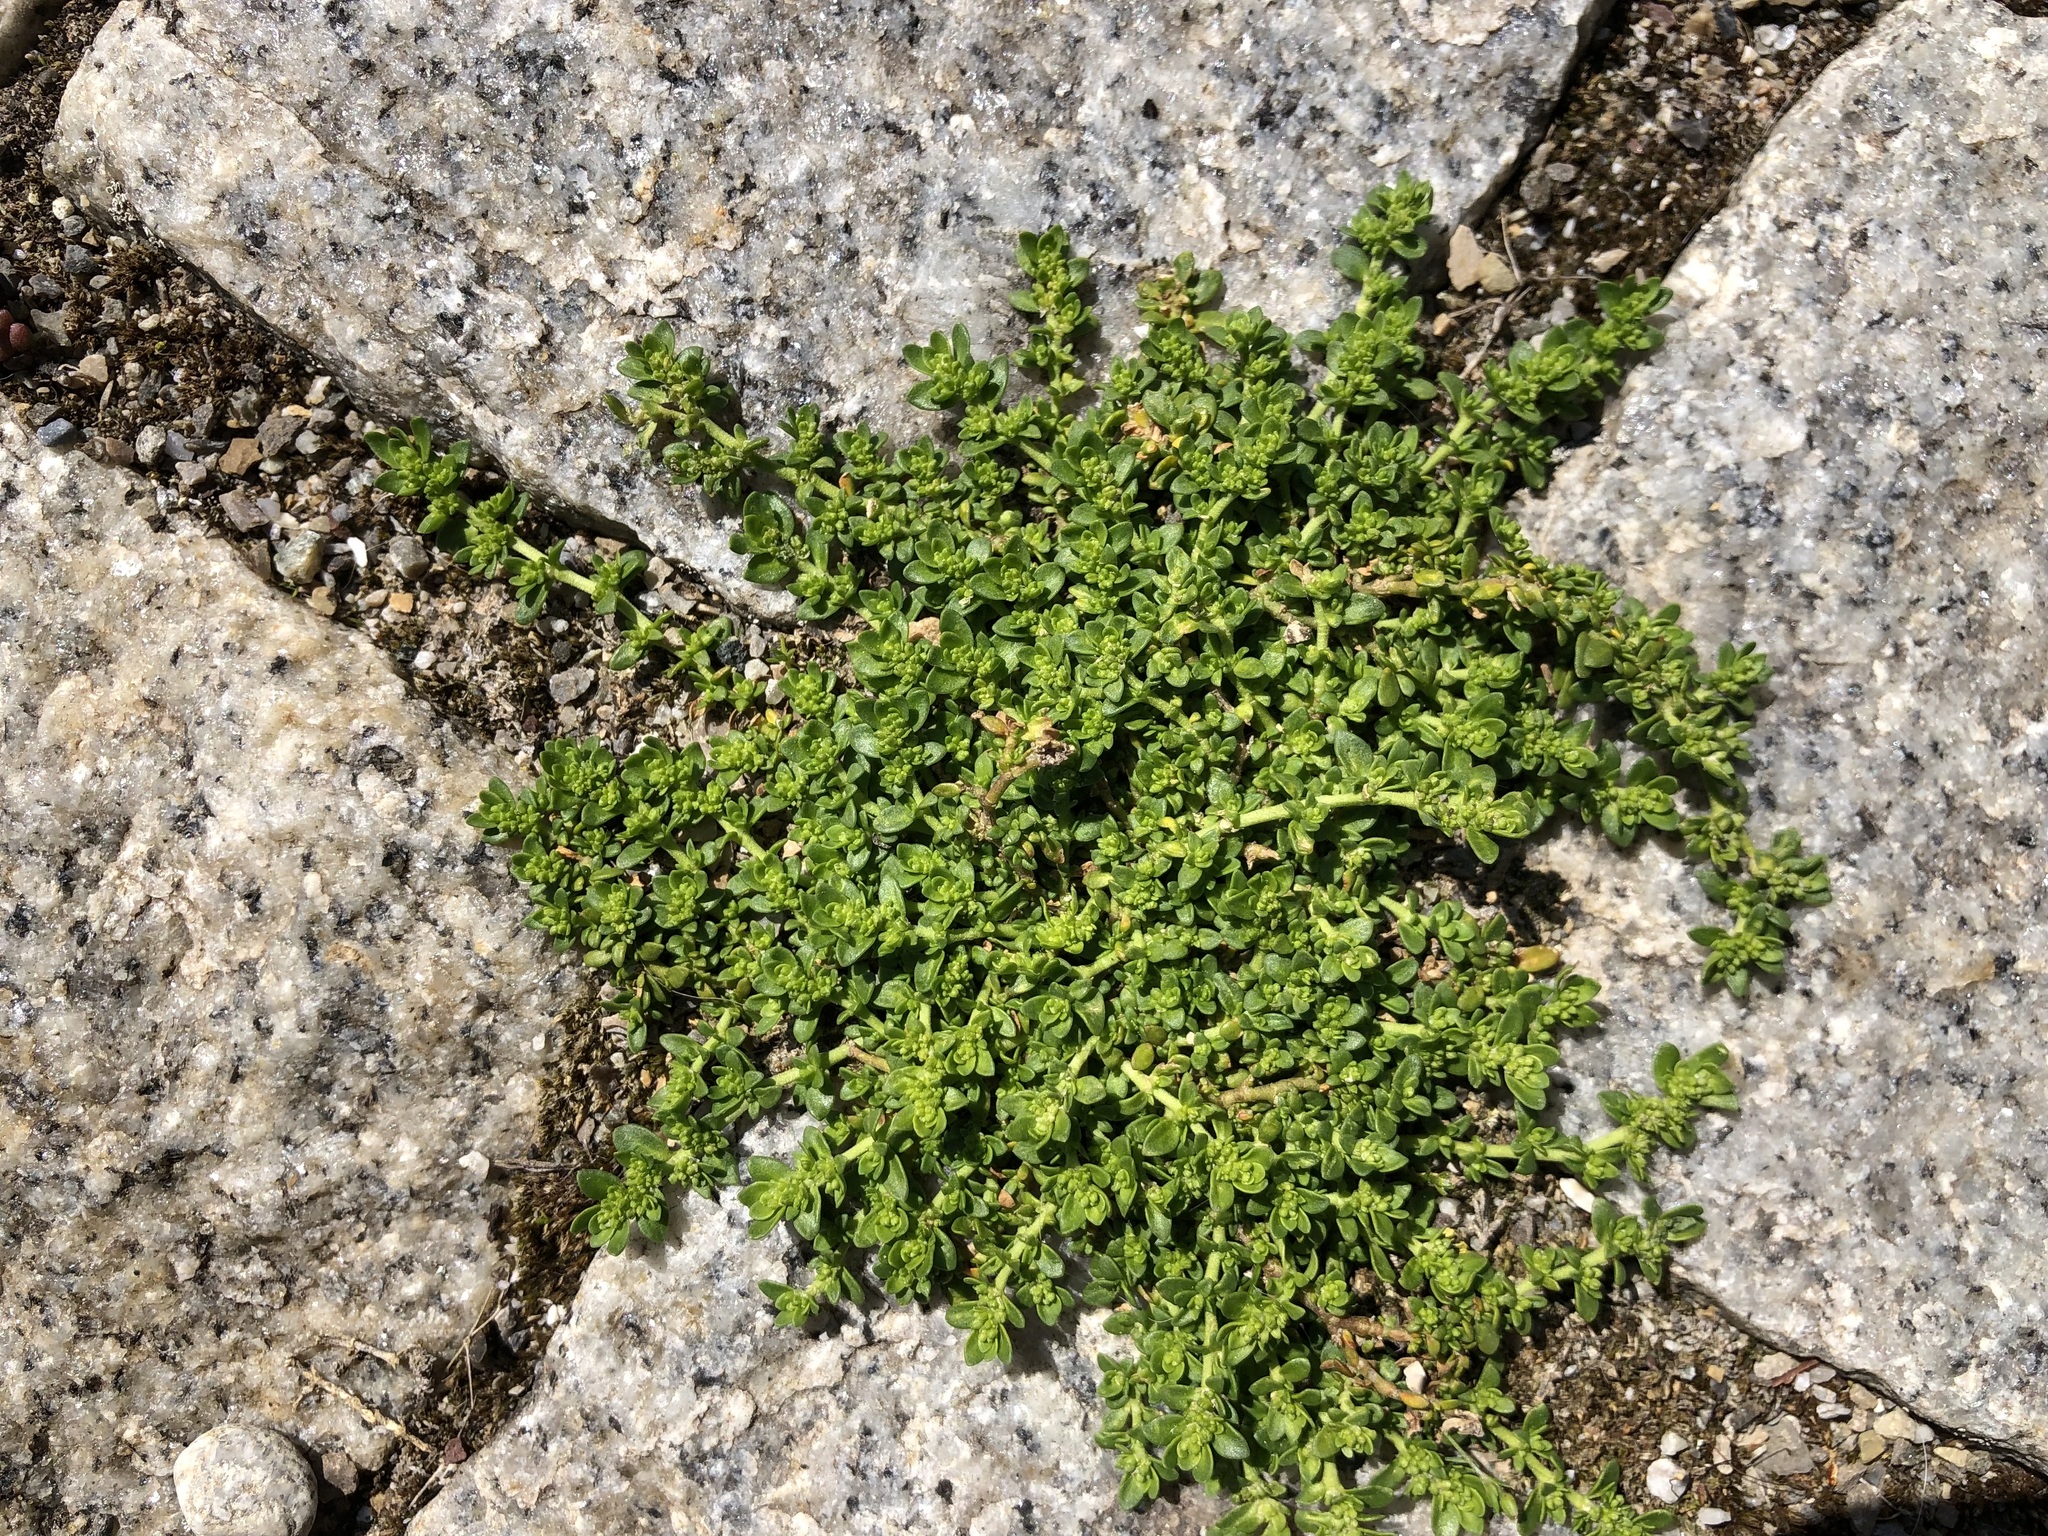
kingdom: Plantae
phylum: Tracheophyta
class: Magnoliopsida
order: Caryophyllales
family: Caryophyllaceae
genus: Herniaria
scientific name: Herniaria glabra
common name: Smooth rupturewort
